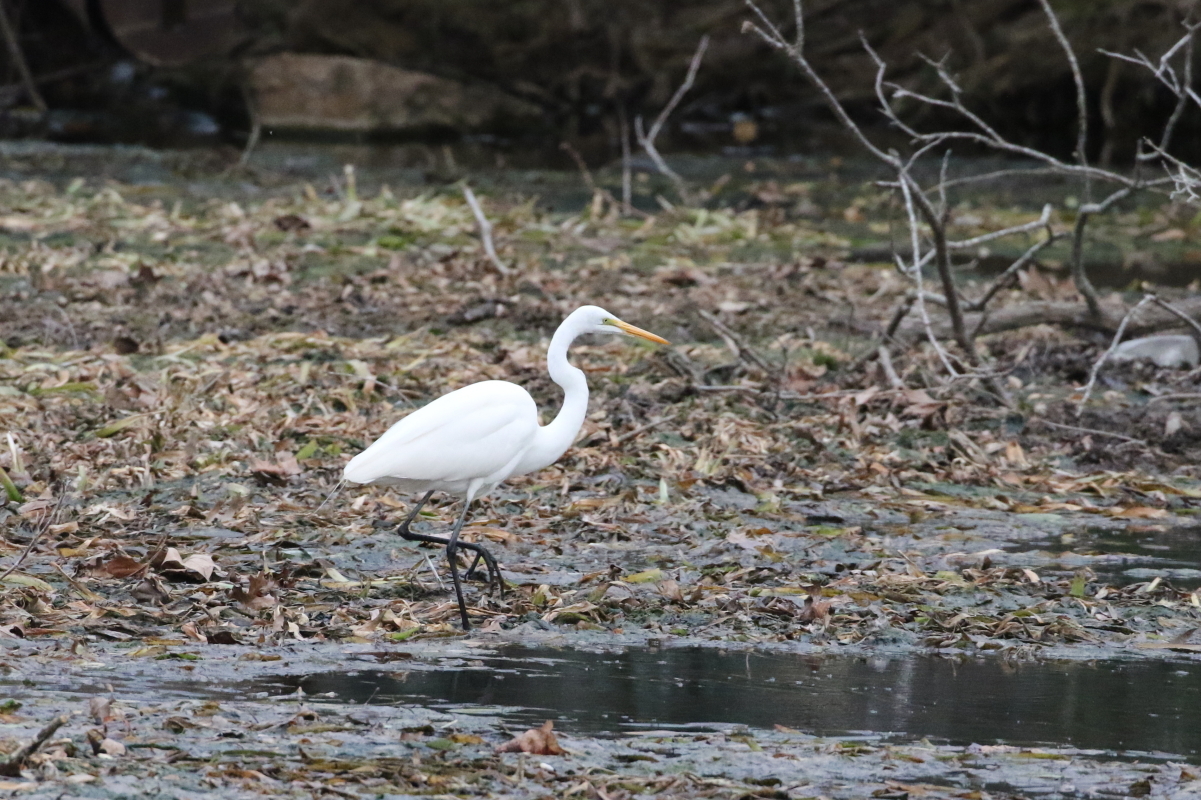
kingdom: Animalia
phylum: Chordata
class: Aves
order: Pelecaniformes
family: Ardeidae
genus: Ardea
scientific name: Ardea alba
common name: Great egret
